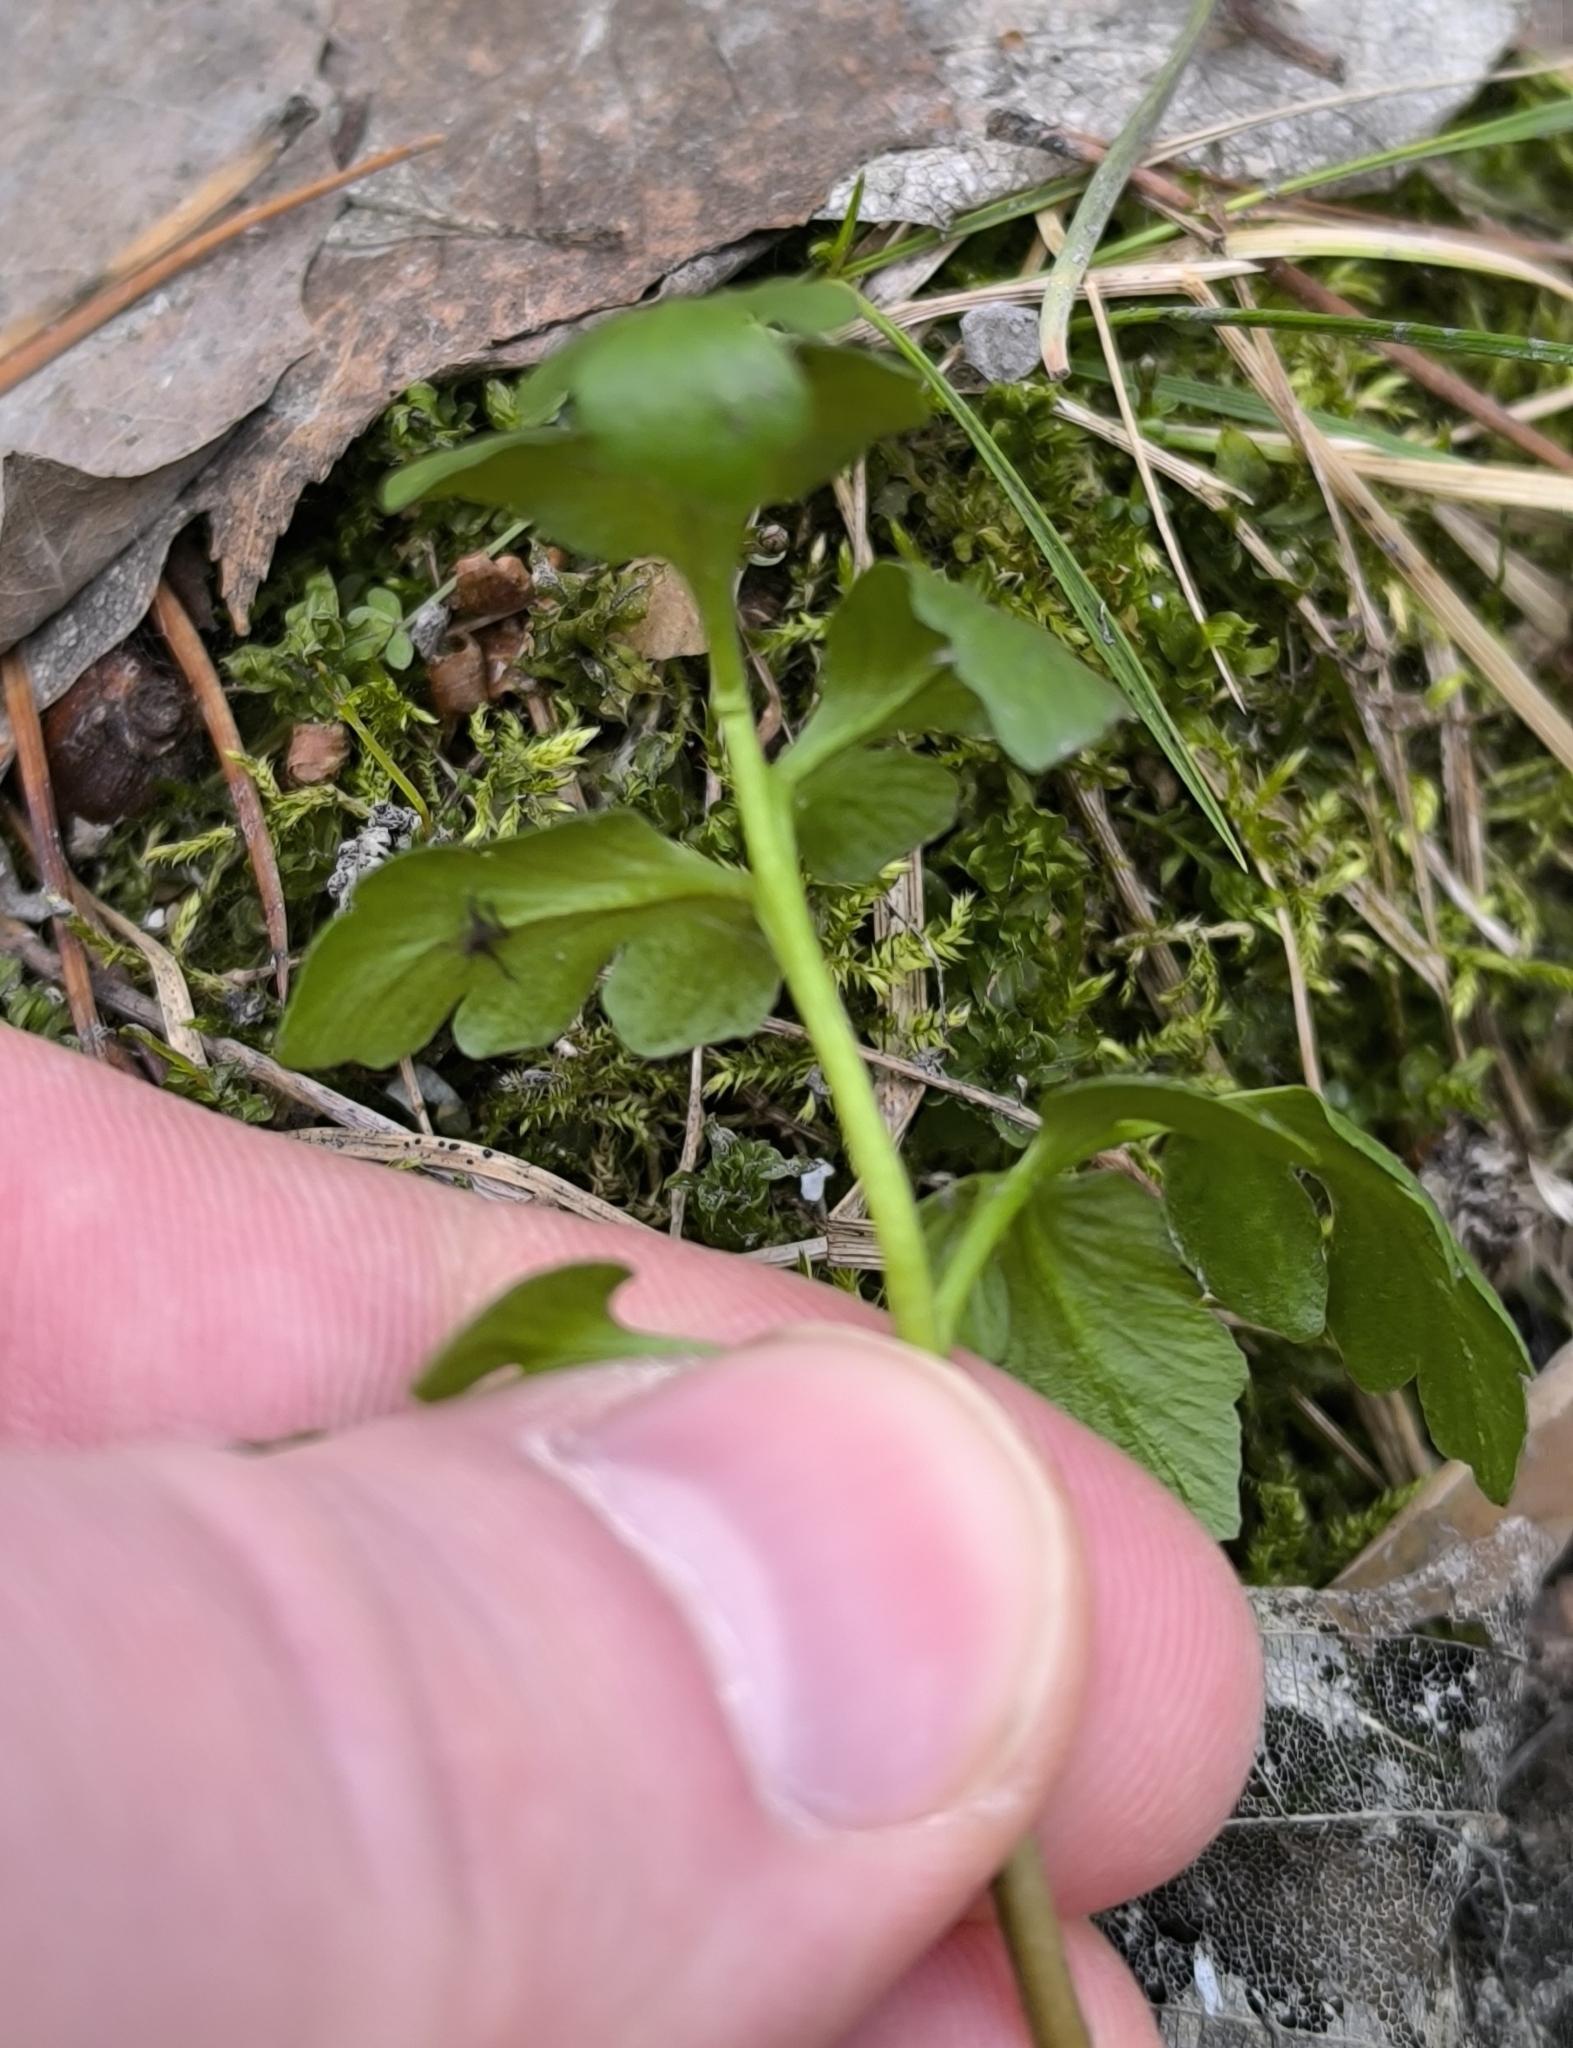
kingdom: Plantae
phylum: Tracheophyta
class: Polypodiopsida
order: Ophioglossales
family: Ophioglossaceae
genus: Sceptridium
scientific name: Sceptridium multifidum
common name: Leathery grape fern
